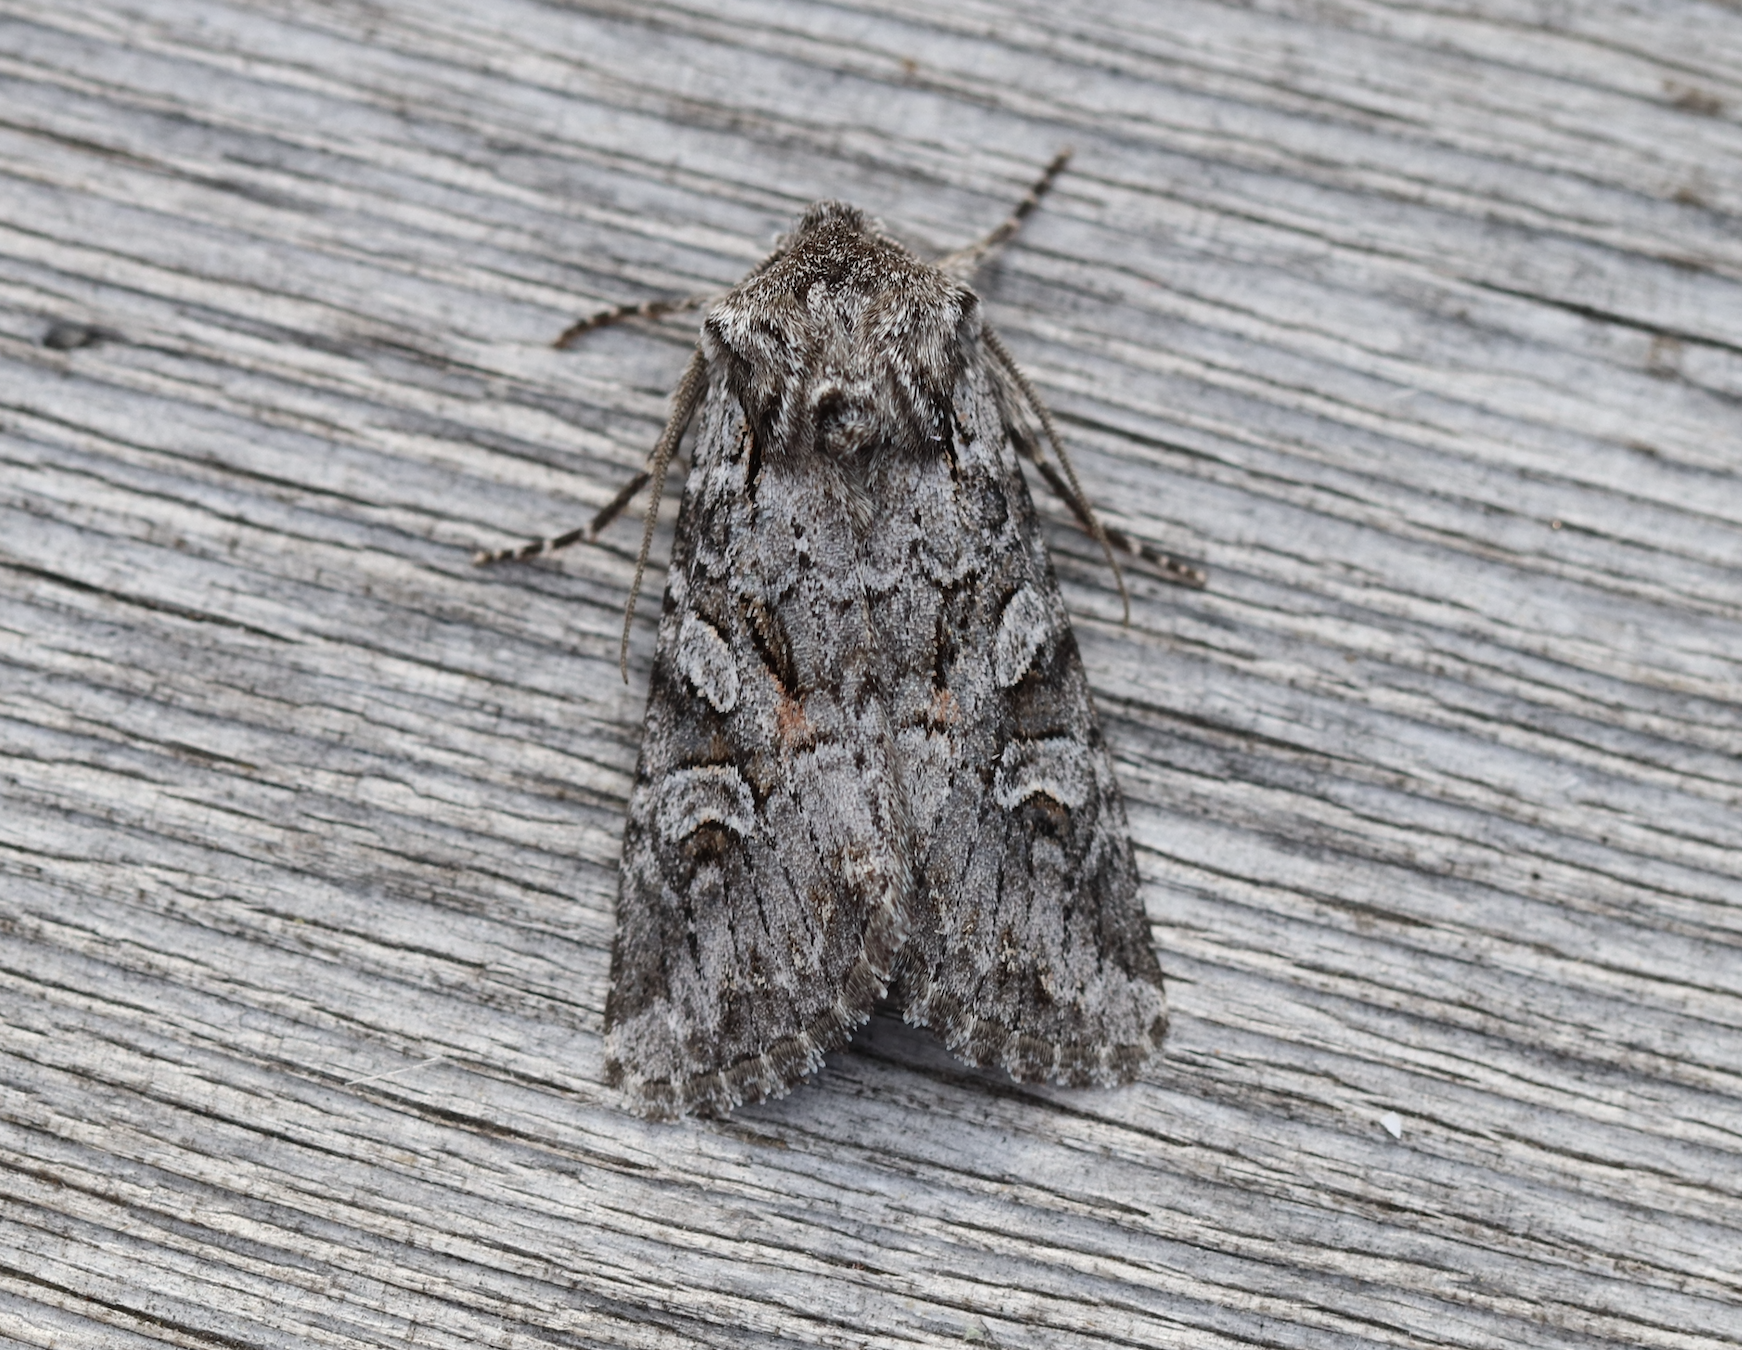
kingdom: Animalia
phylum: Arthropoda
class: Insecta
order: Lepidoptera
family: Noctuidae
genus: Lasionycta
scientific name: Lasionycta proxima
